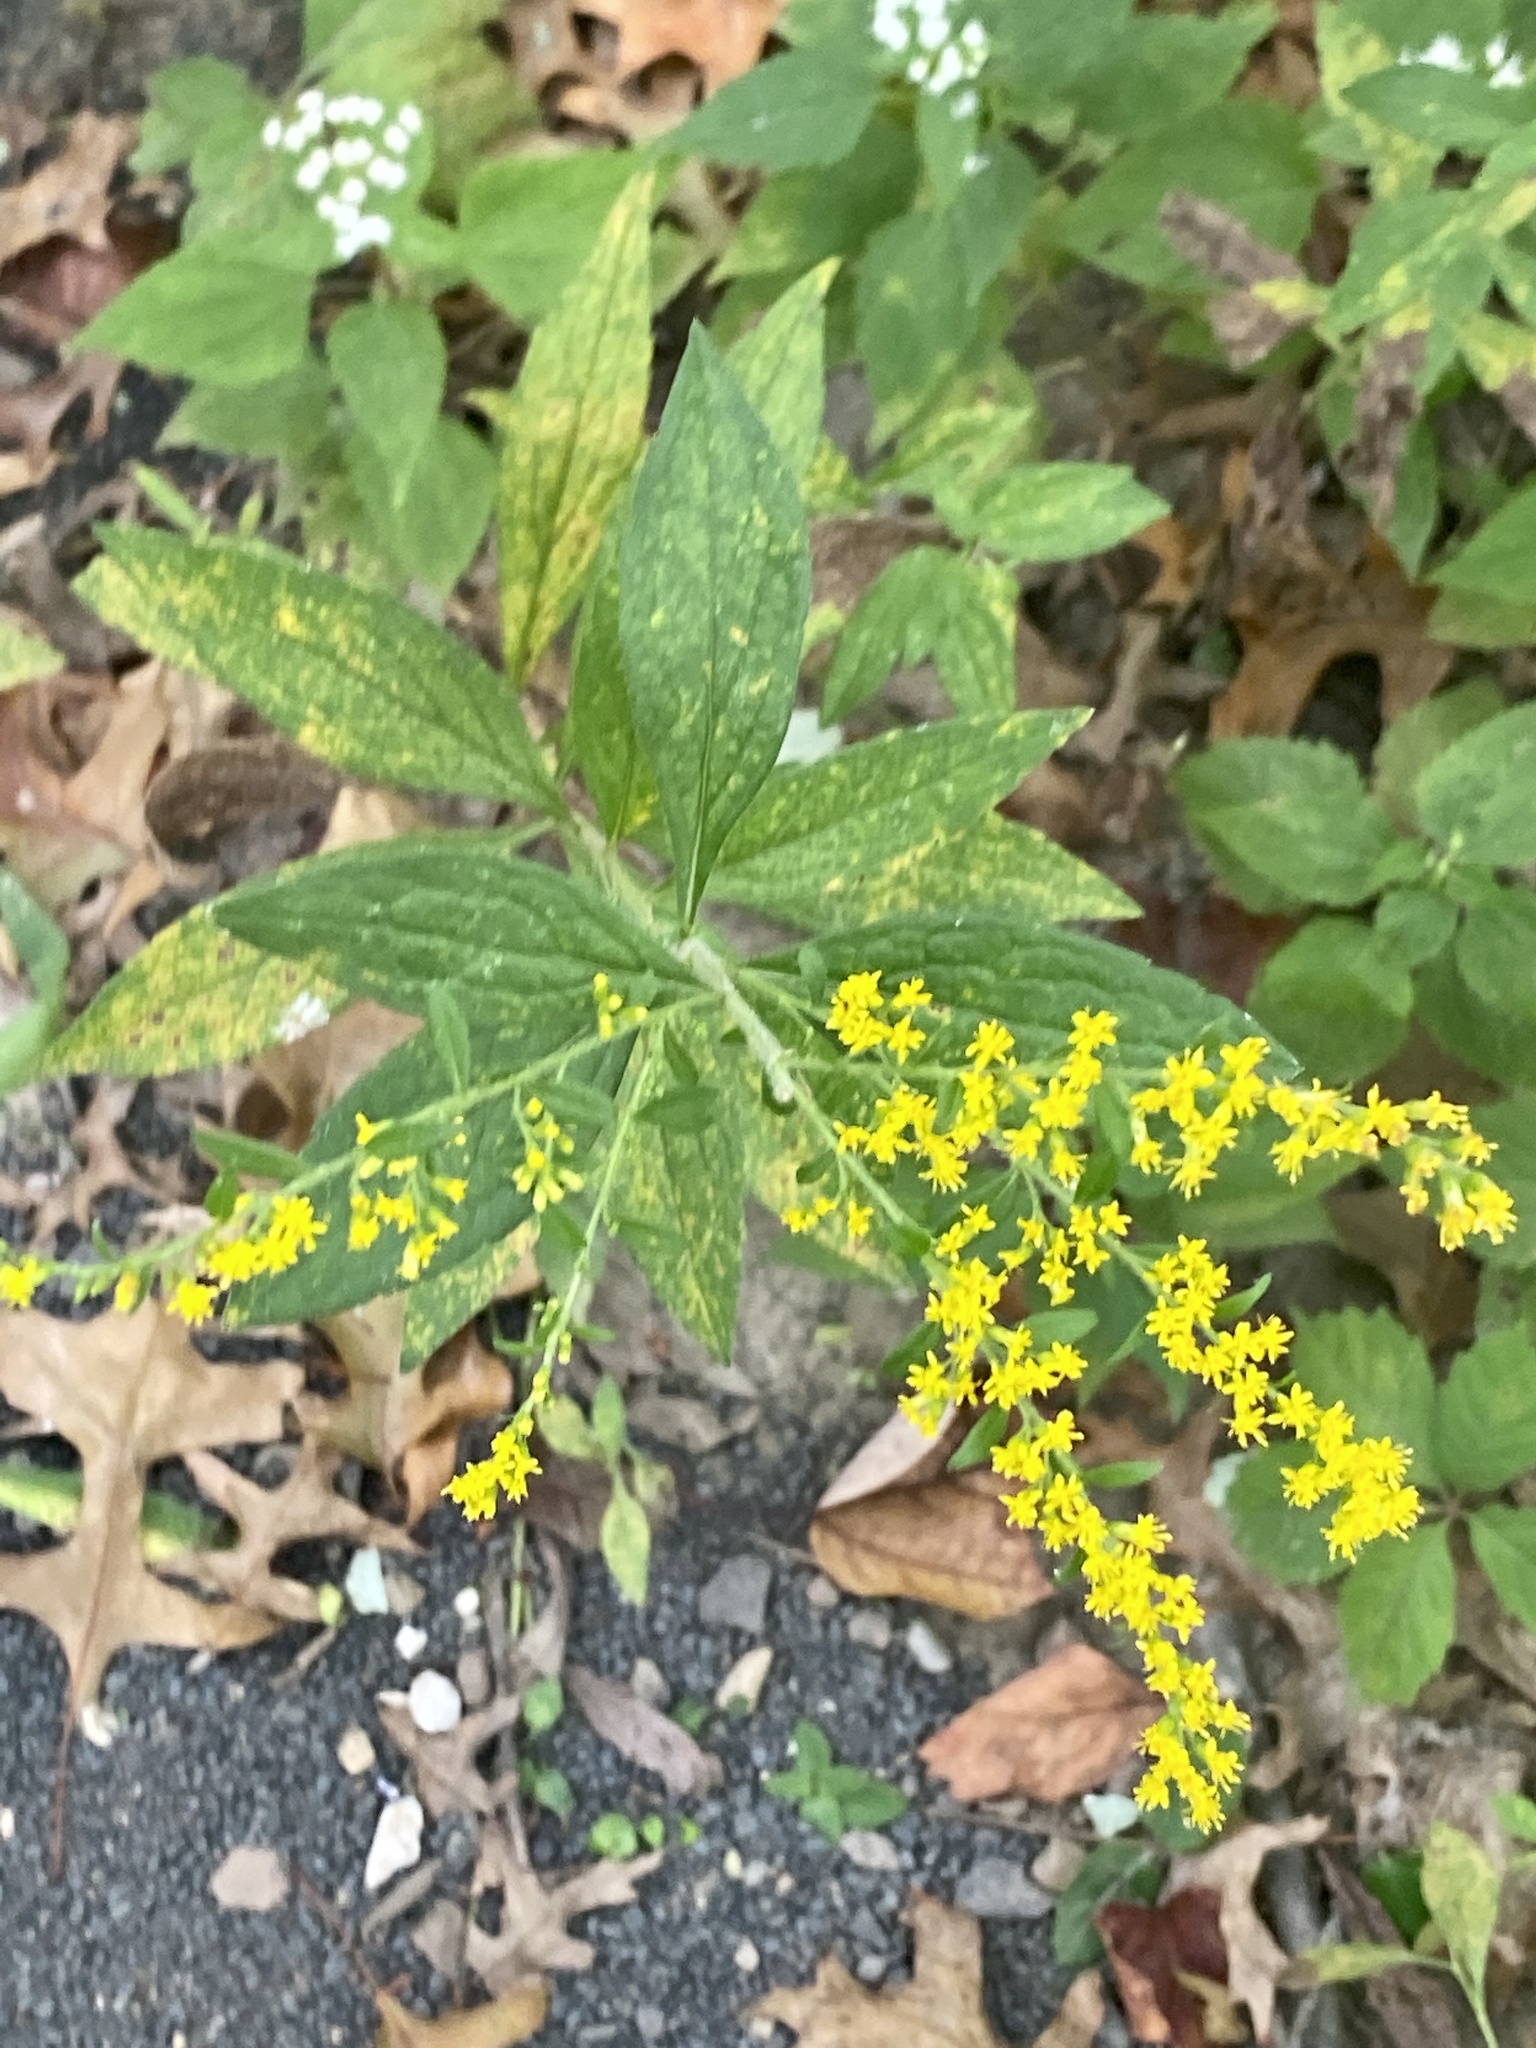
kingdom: Plantae
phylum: Tracheophyta
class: Magnoliopsida
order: Asterales
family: Asteraceae
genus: Solidago
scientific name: Solidago rugosa
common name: Rough-stemmed goldenrod
